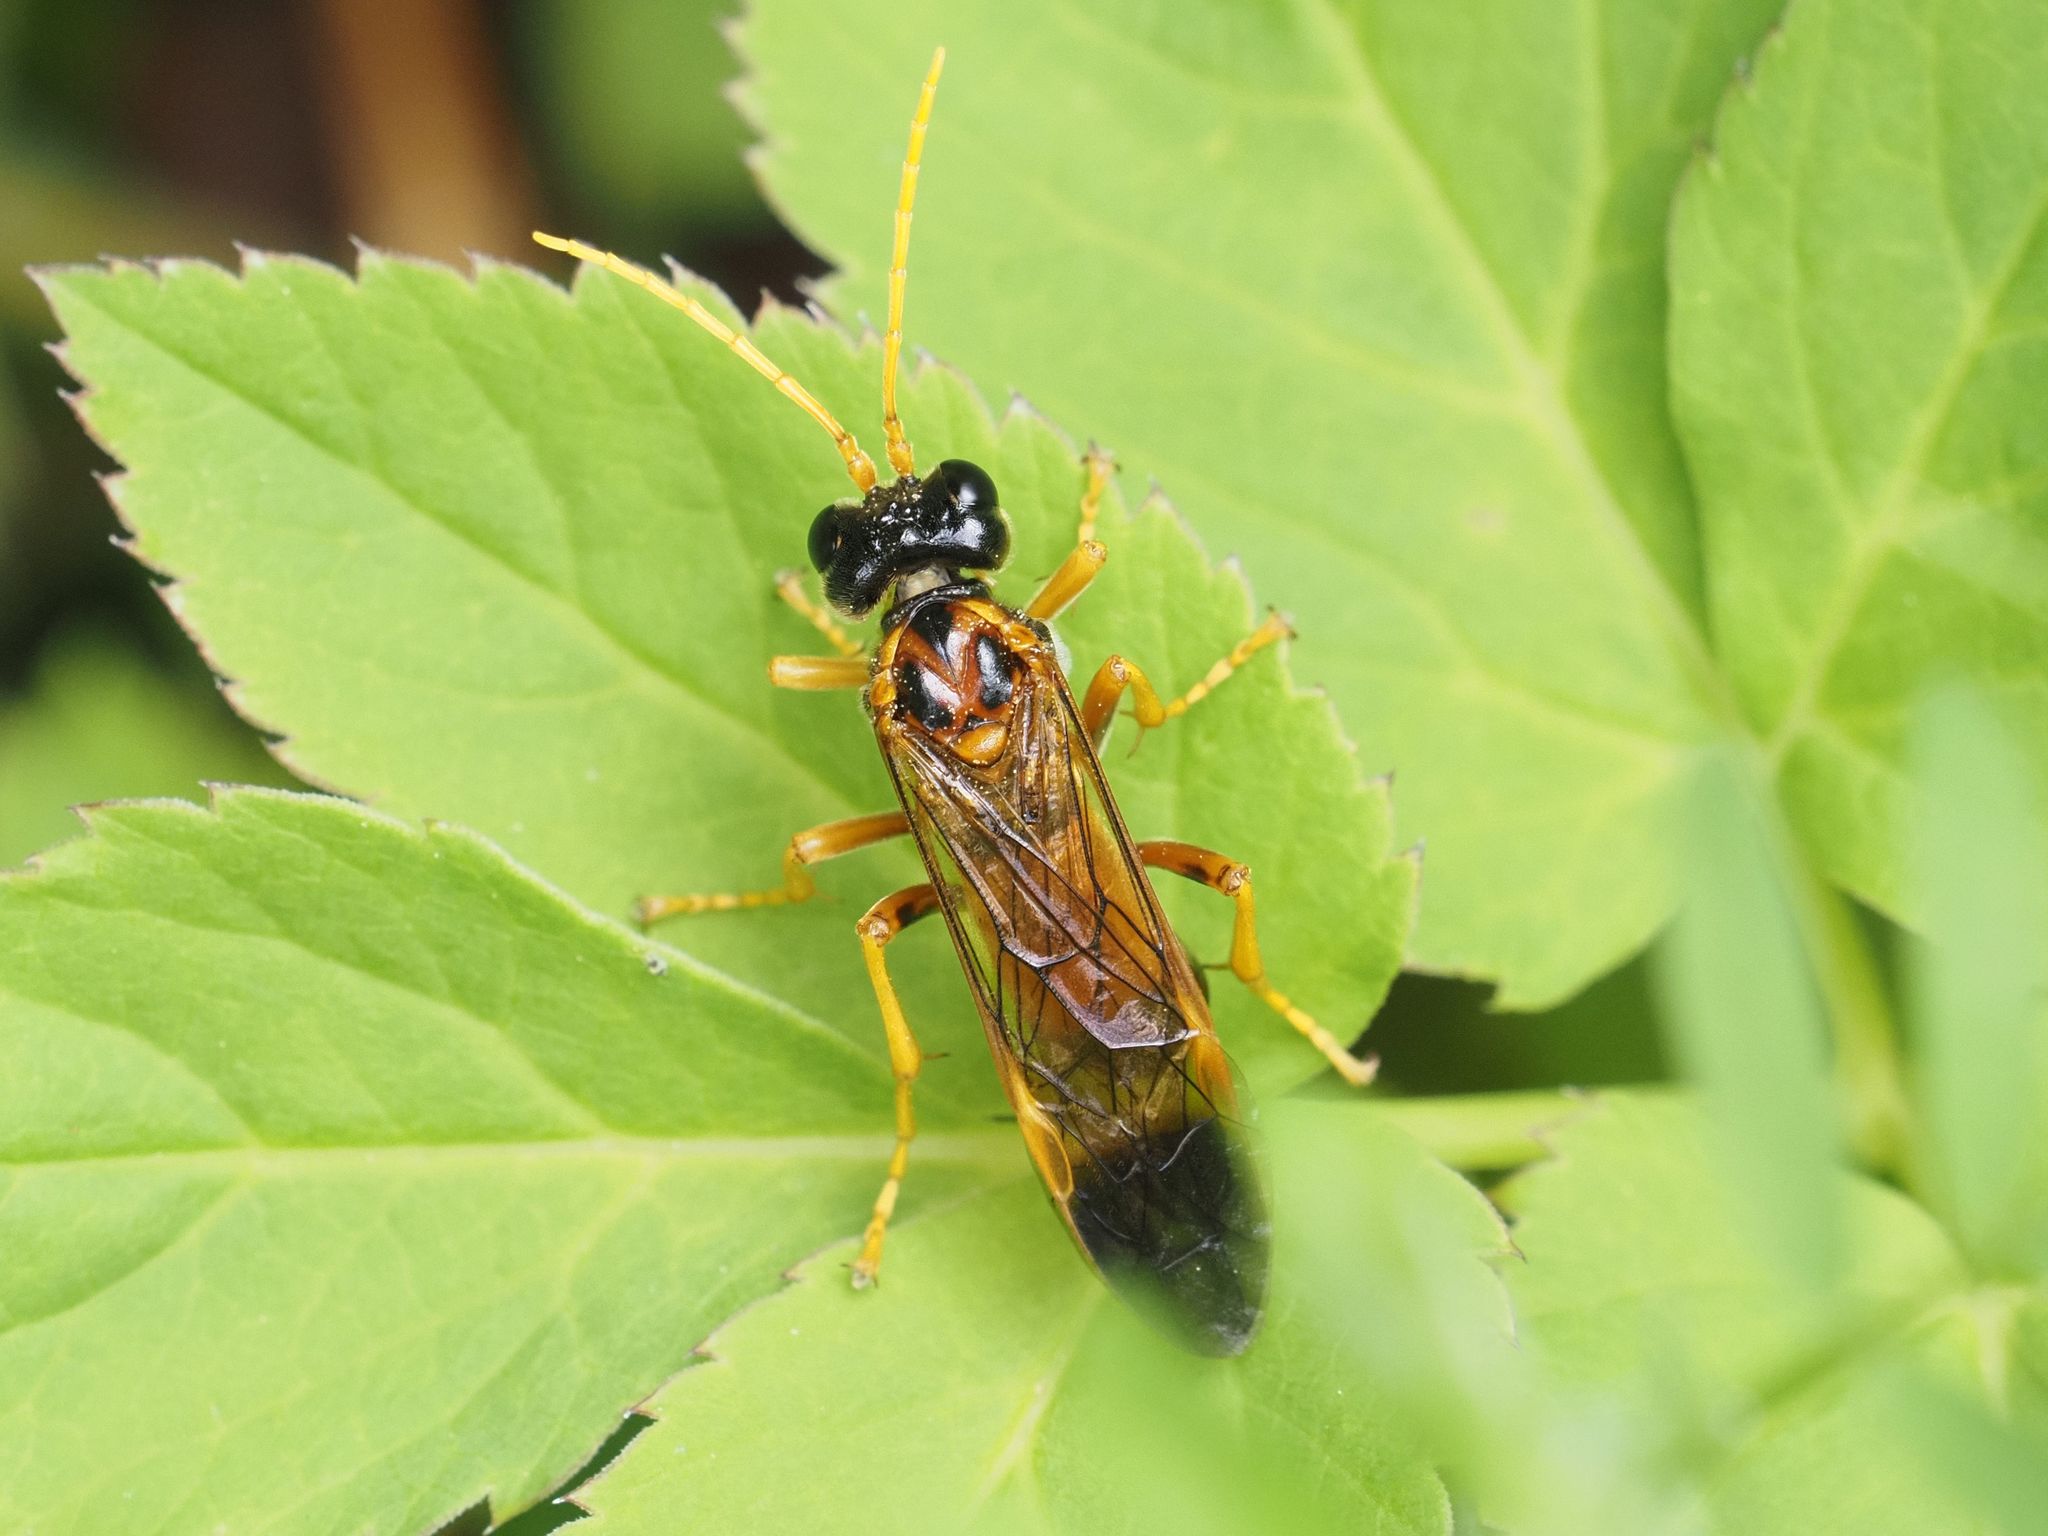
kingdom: Animalia
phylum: Arthropoda
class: Insecta
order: Hymenoptera
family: Tenthredinidae
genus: Tenthredo
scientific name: Tenthredo campestris
